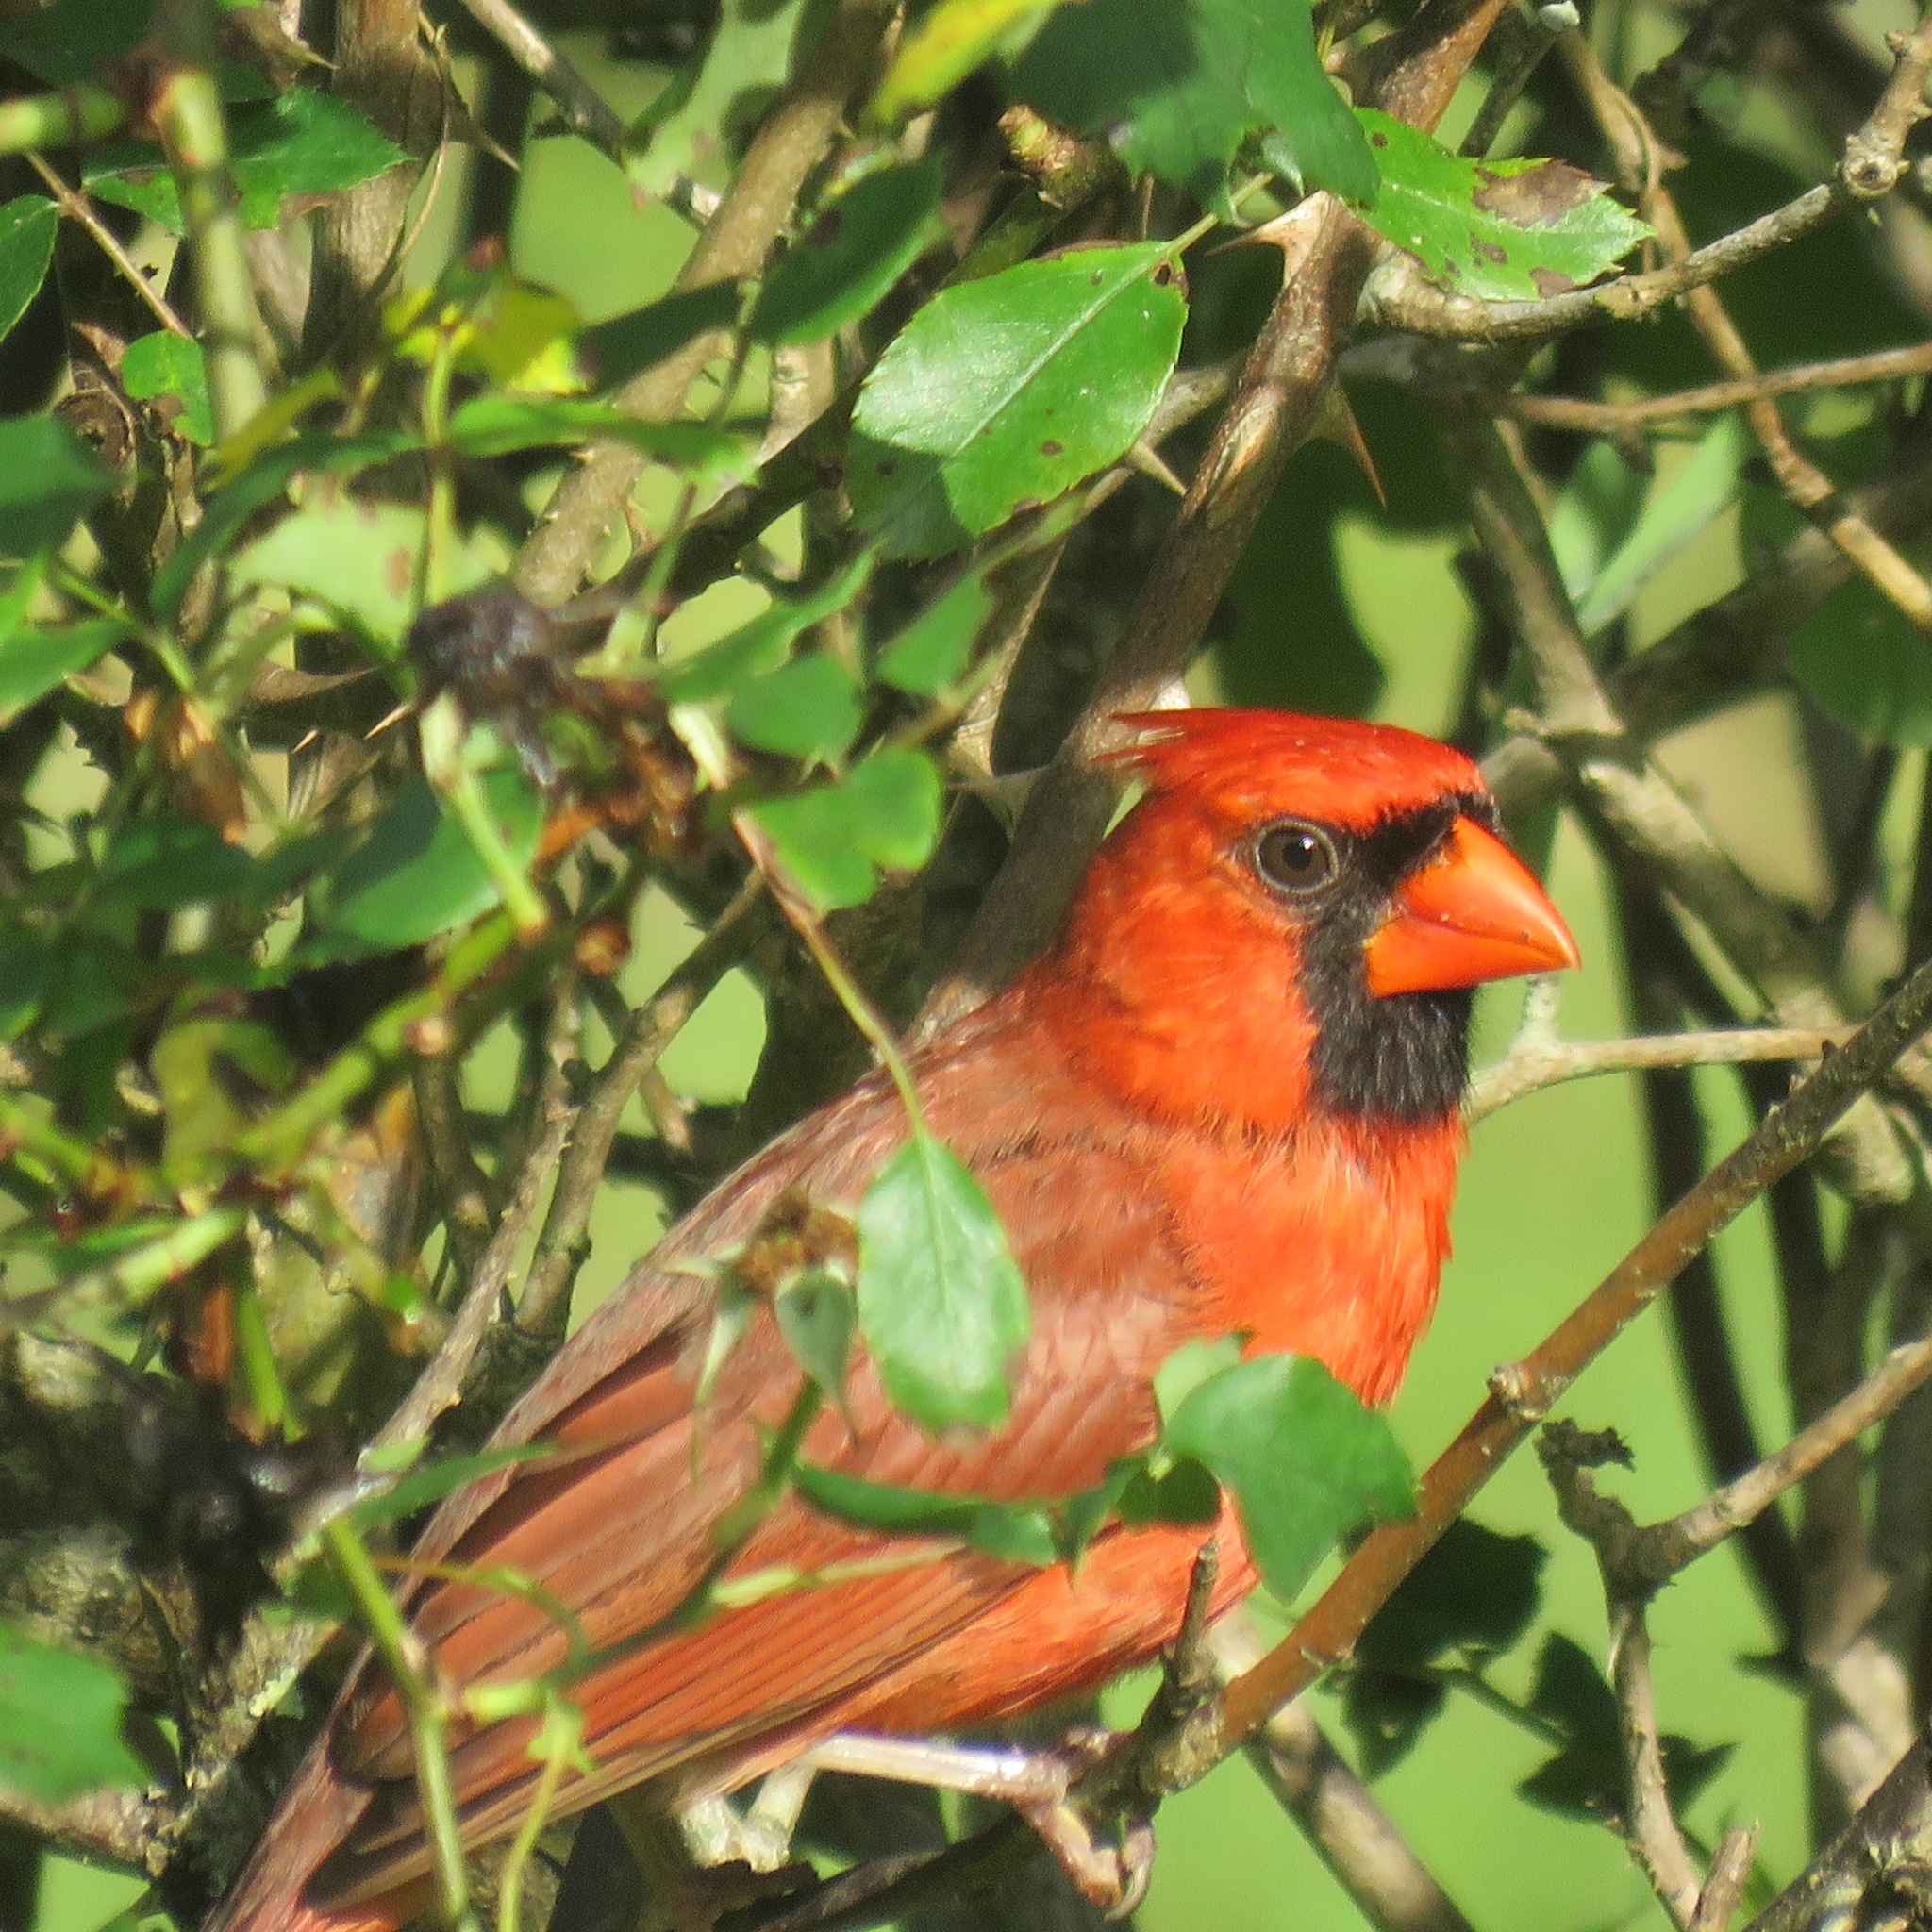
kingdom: Animalia
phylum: Chordata
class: Aves
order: Passeriformes
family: Cardinalidae
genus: Cardinalis
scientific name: Cardinalis cardinalis
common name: Northern cardinal
